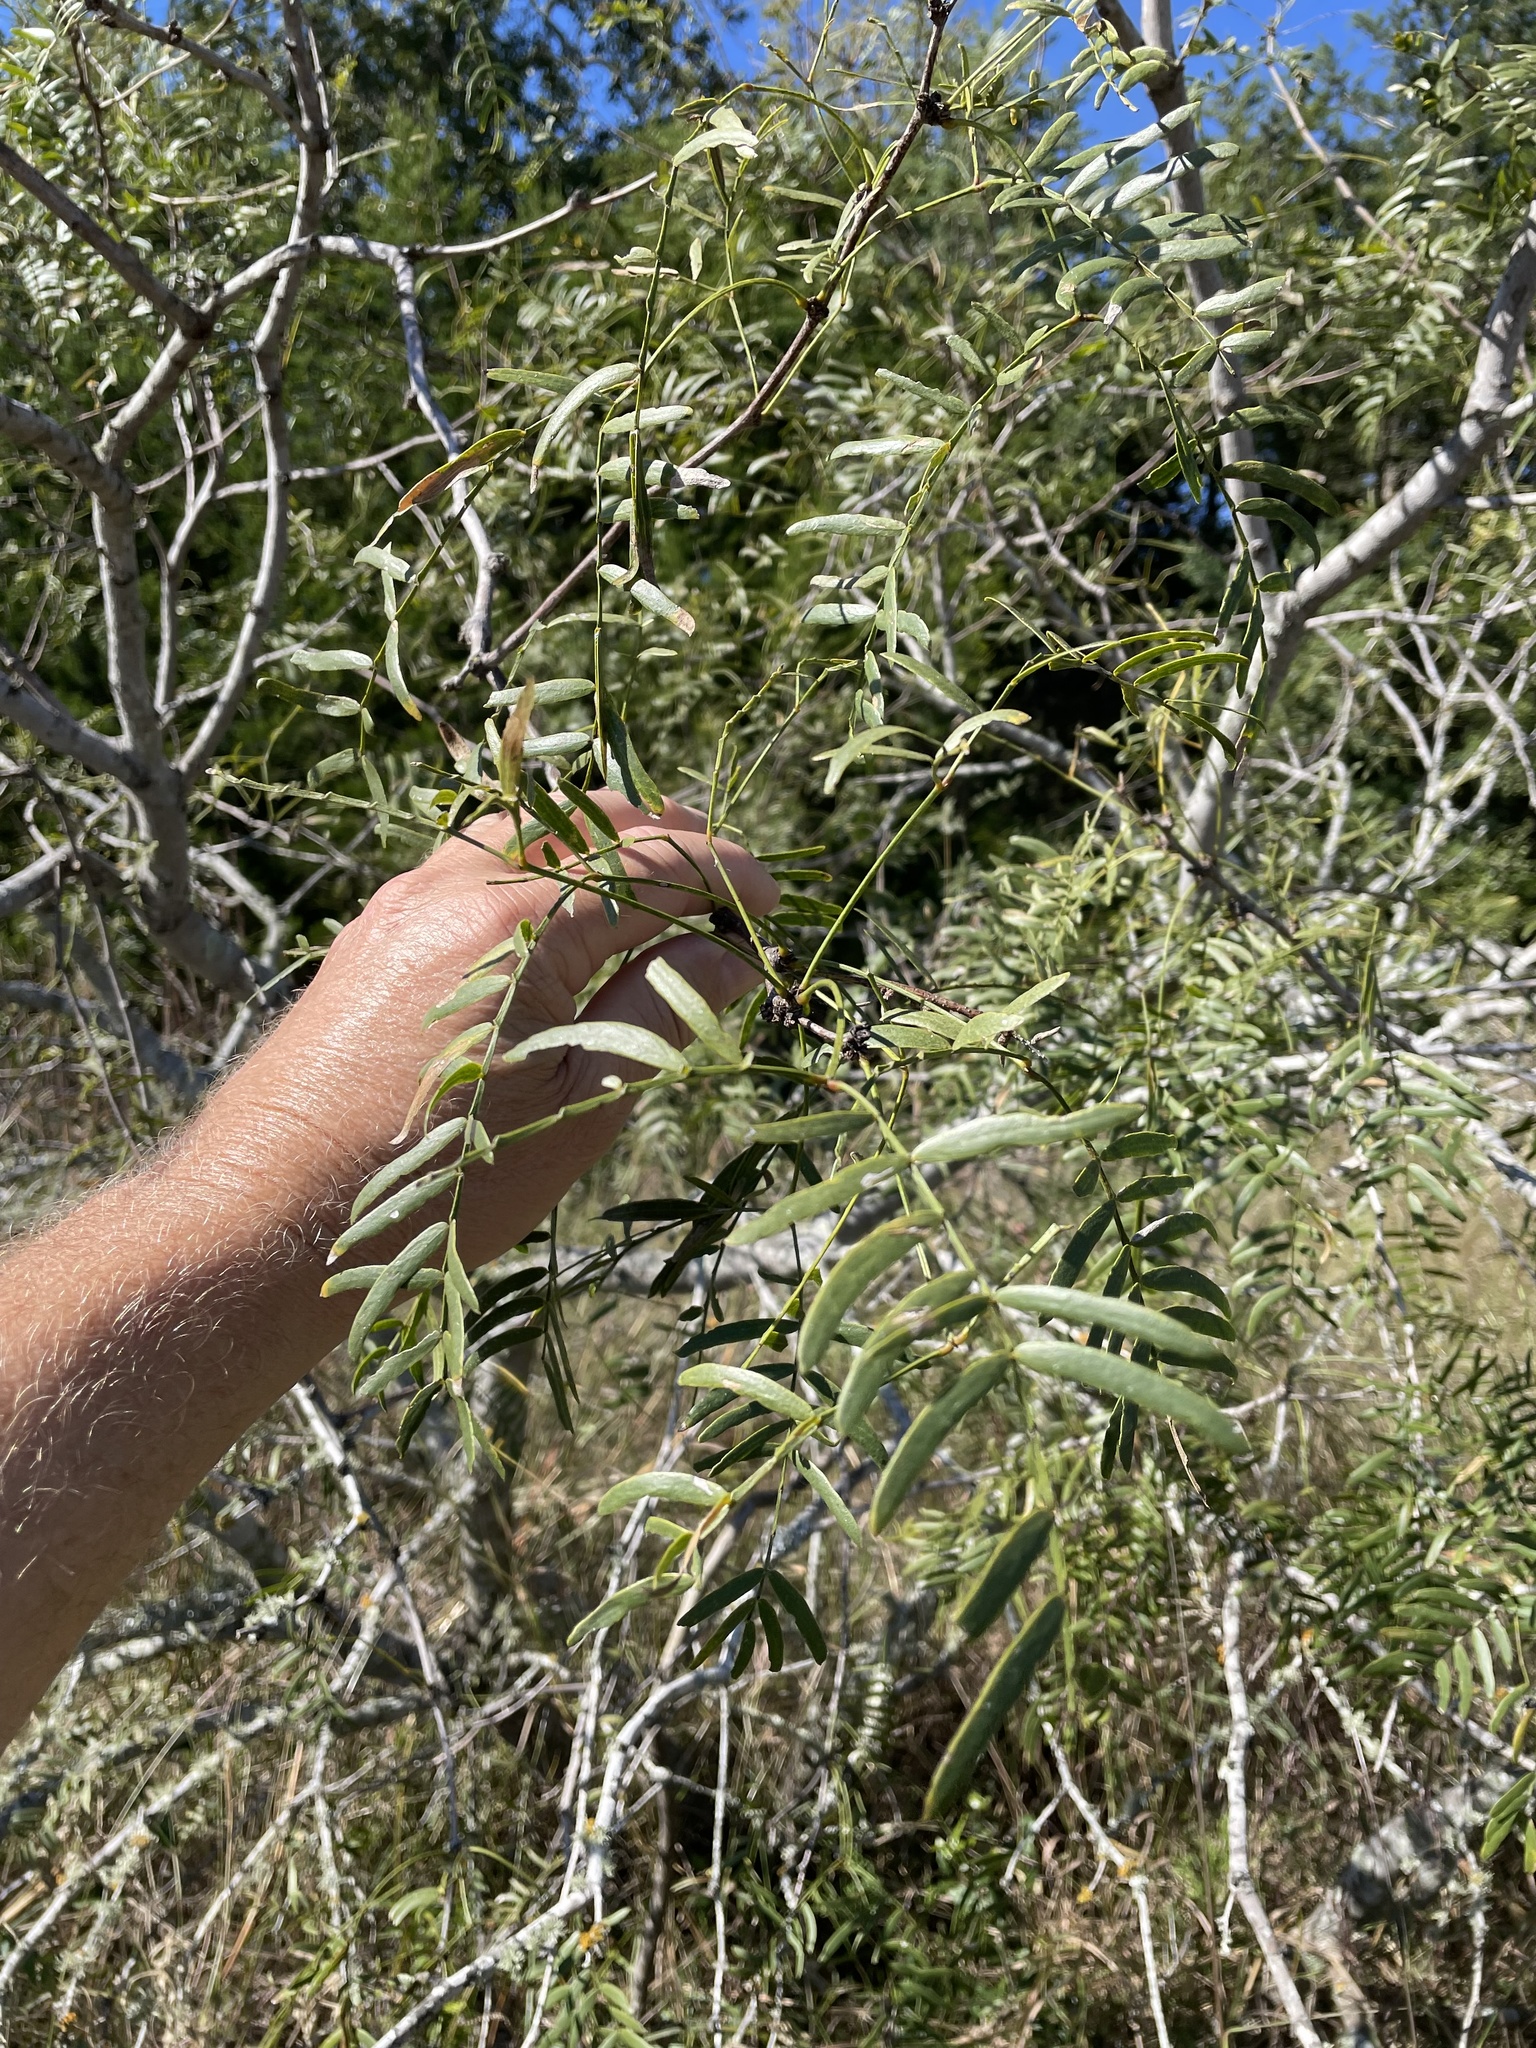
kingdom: Plantae
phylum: Tracheophyta
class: Magnoliopsida
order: Fabales
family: Fabaceae
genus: Prosopis
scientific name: Prosopis glandulosa
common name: Honey mesquite
